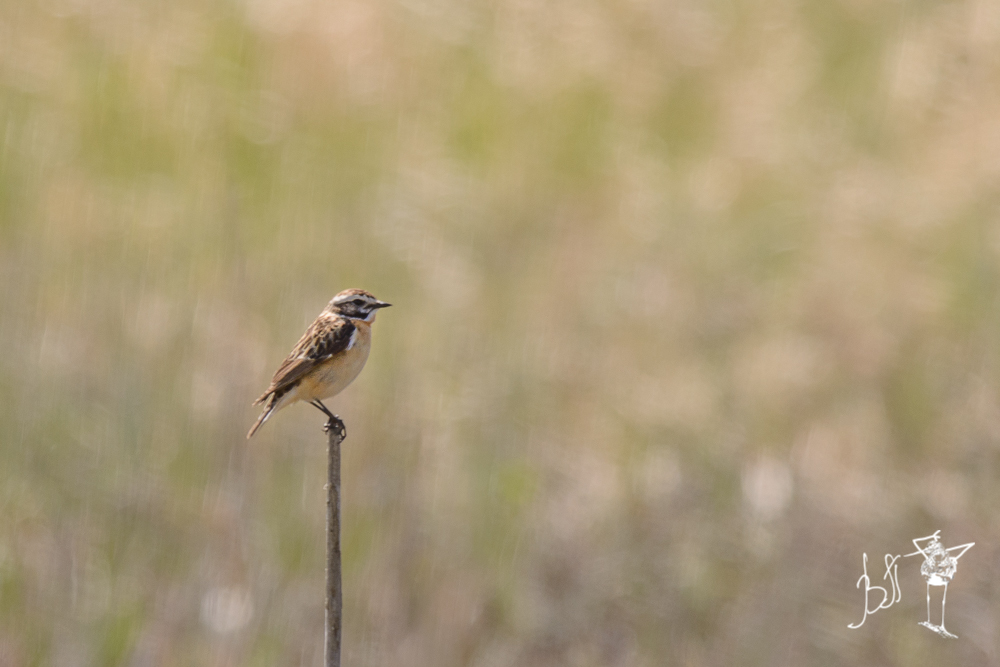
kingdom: Animalia
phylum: Chordata
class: Aves
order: Passeriformes
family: Muscicapidae
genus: Saxicola
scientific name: Saxicola rubetra
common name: Whinchat
